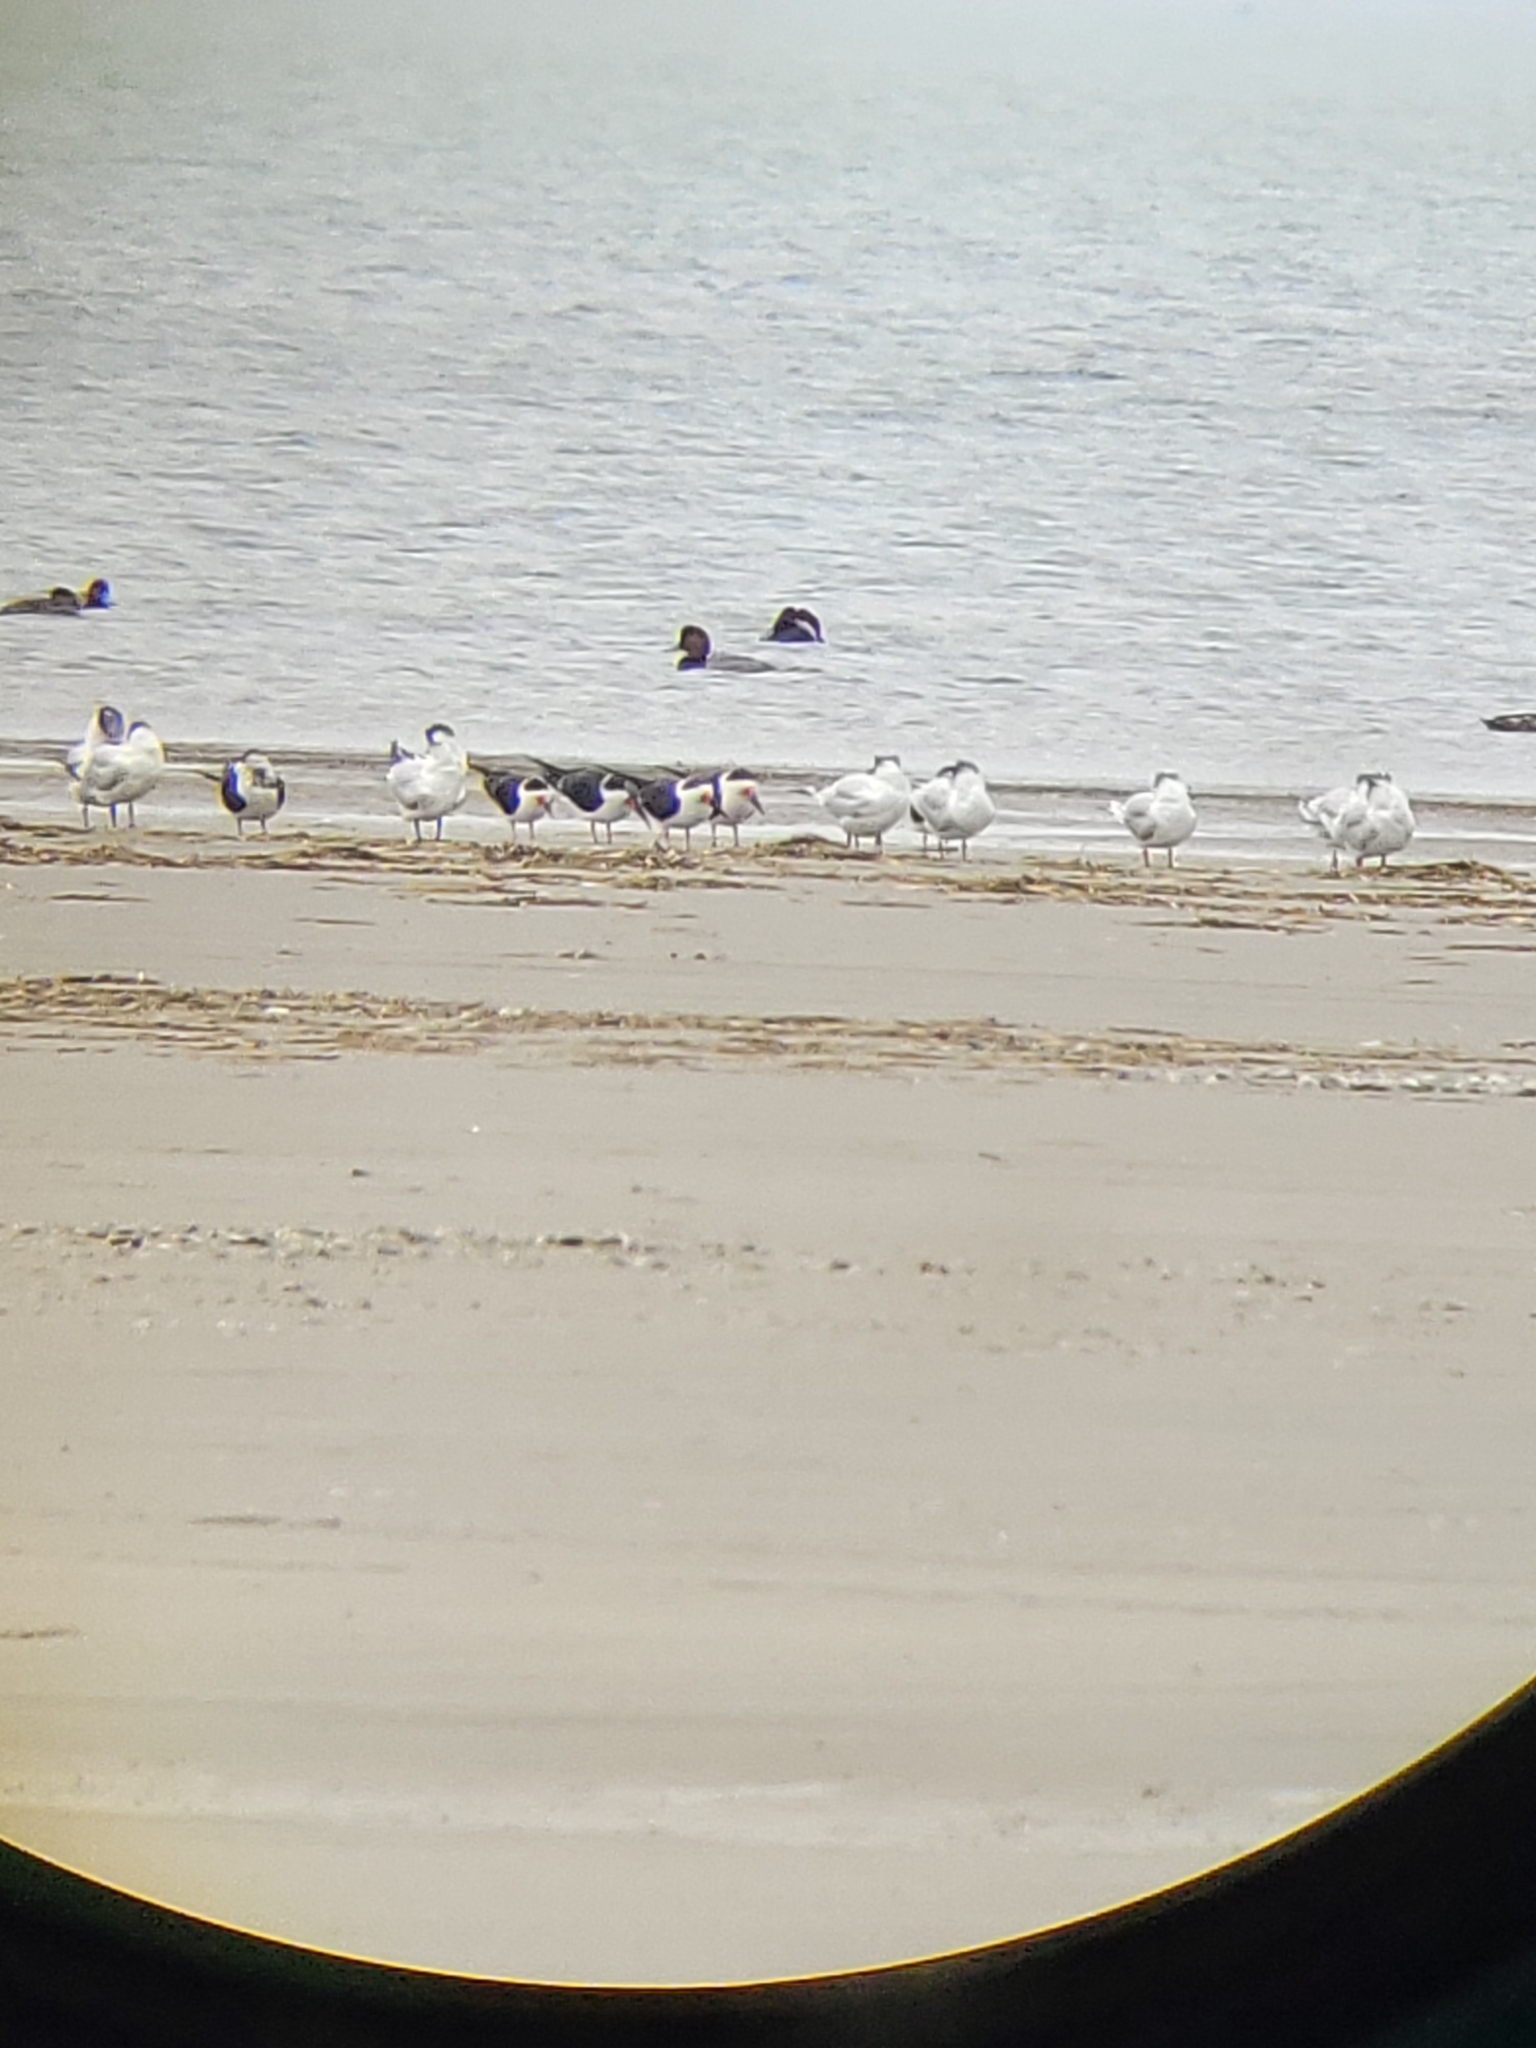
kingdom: Animalia
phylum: Chordata
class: Aves
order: Charadriiformes
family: Laridae
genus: Rynchops
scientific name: Rynchops niger
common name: Black skimmer
